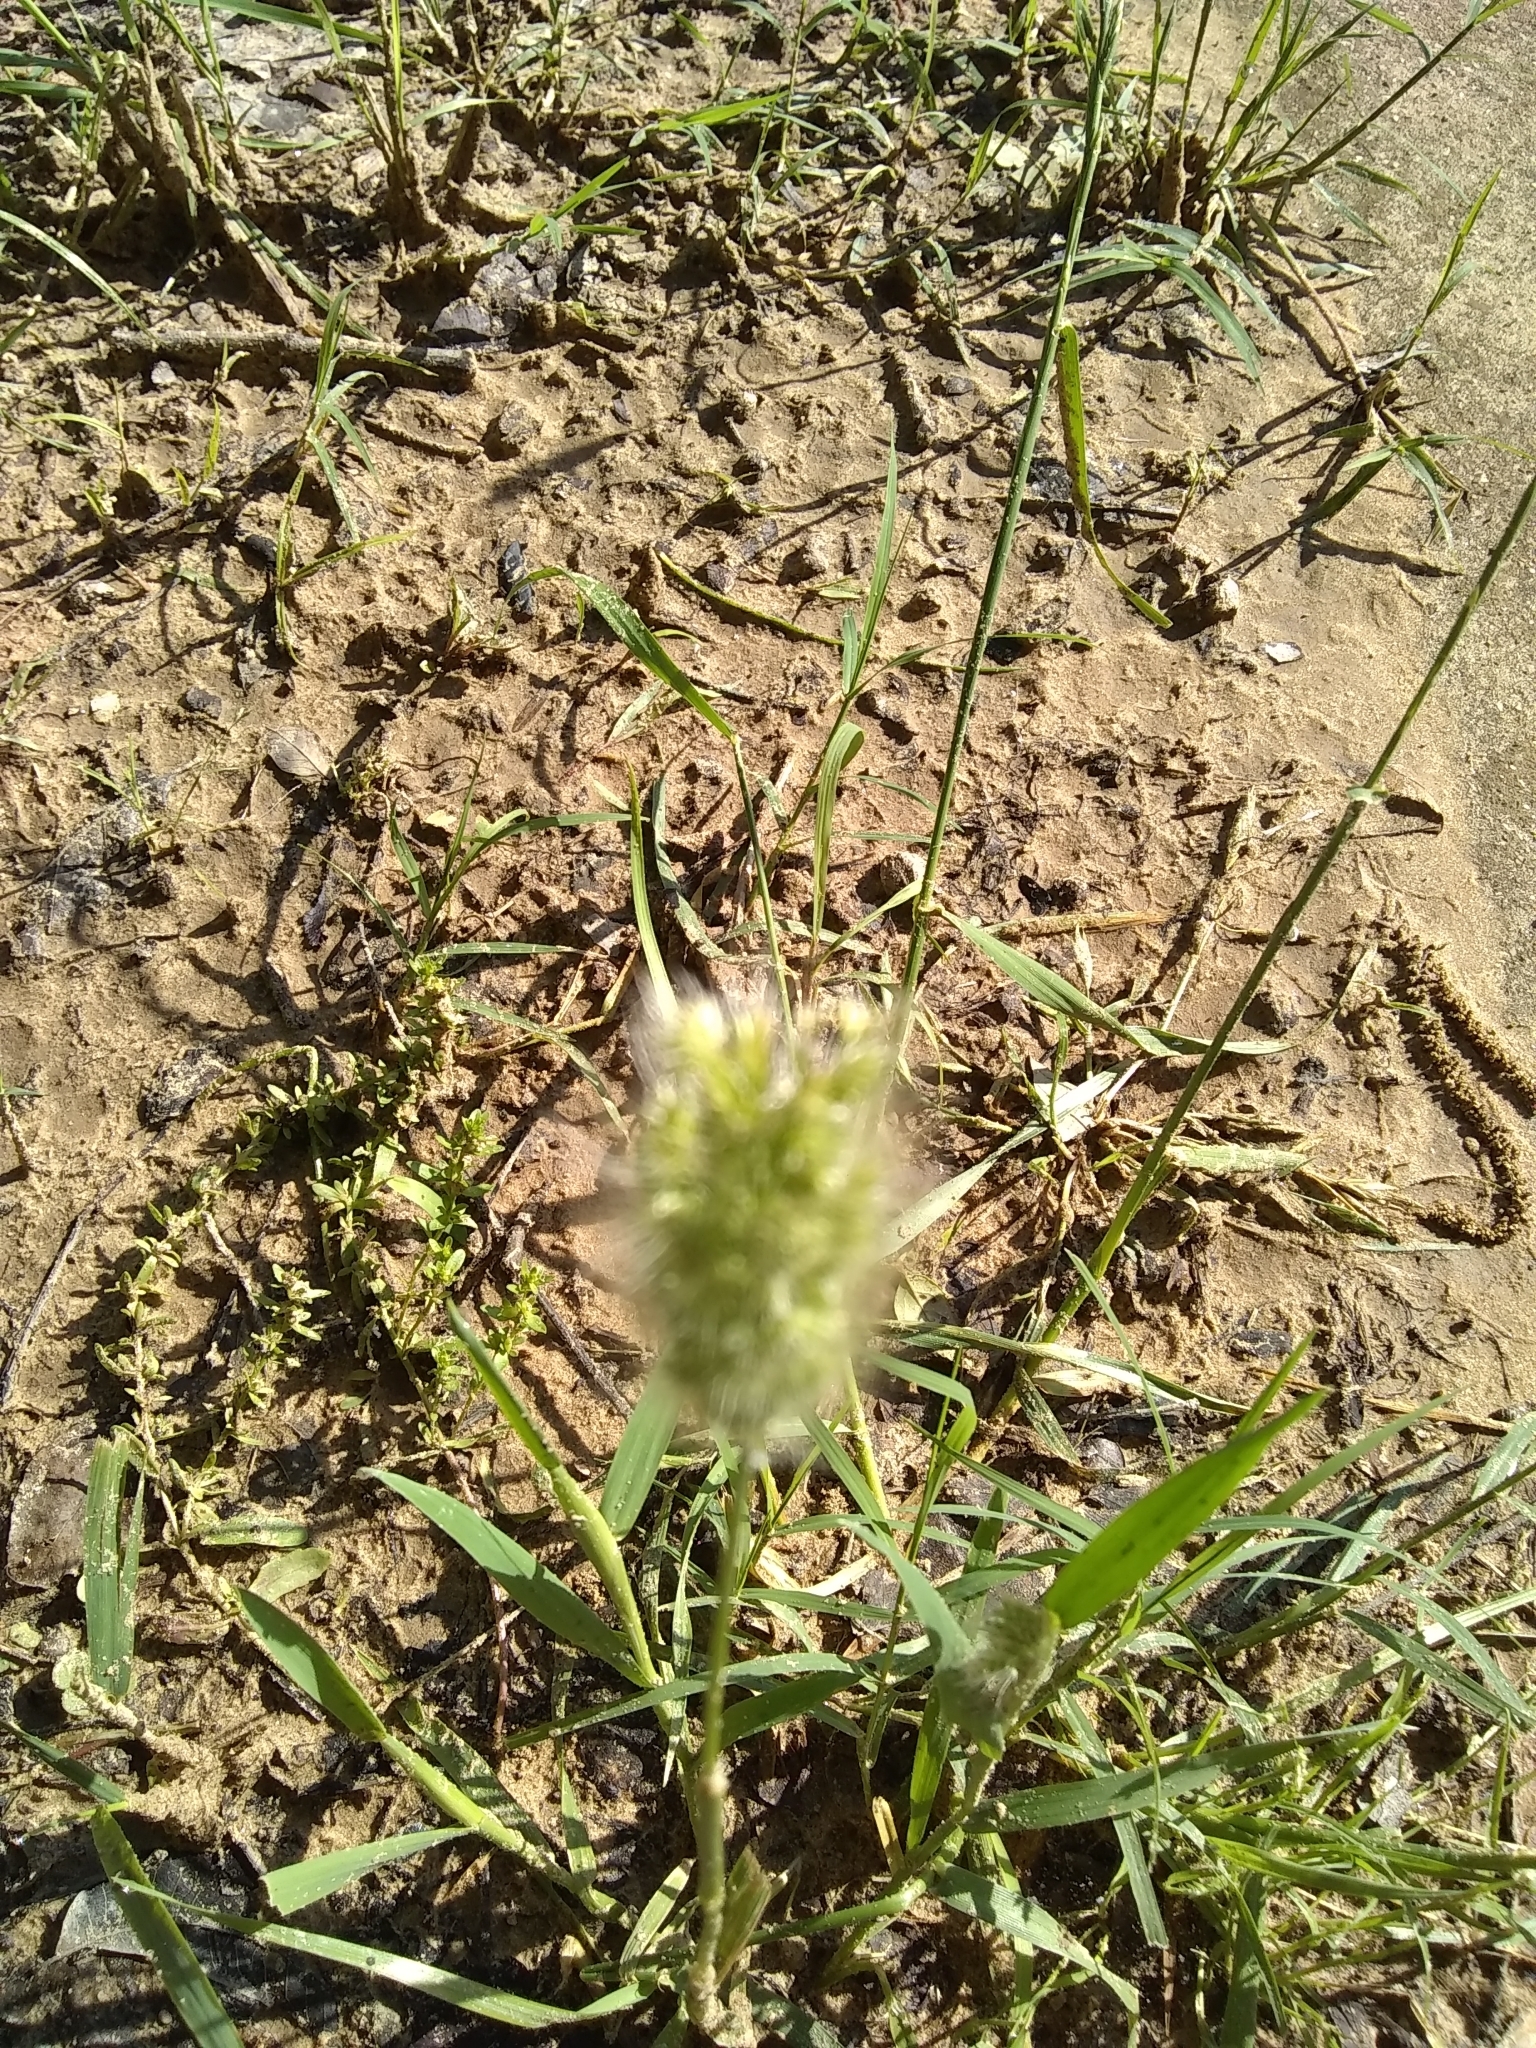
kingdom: Plantae
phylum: Tracheophyta
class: Liliopsida
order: Poales
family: Poaceae
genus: Polypogon
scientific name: Polypogon monspeliensis
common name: Annual rabbitsfoot grass
